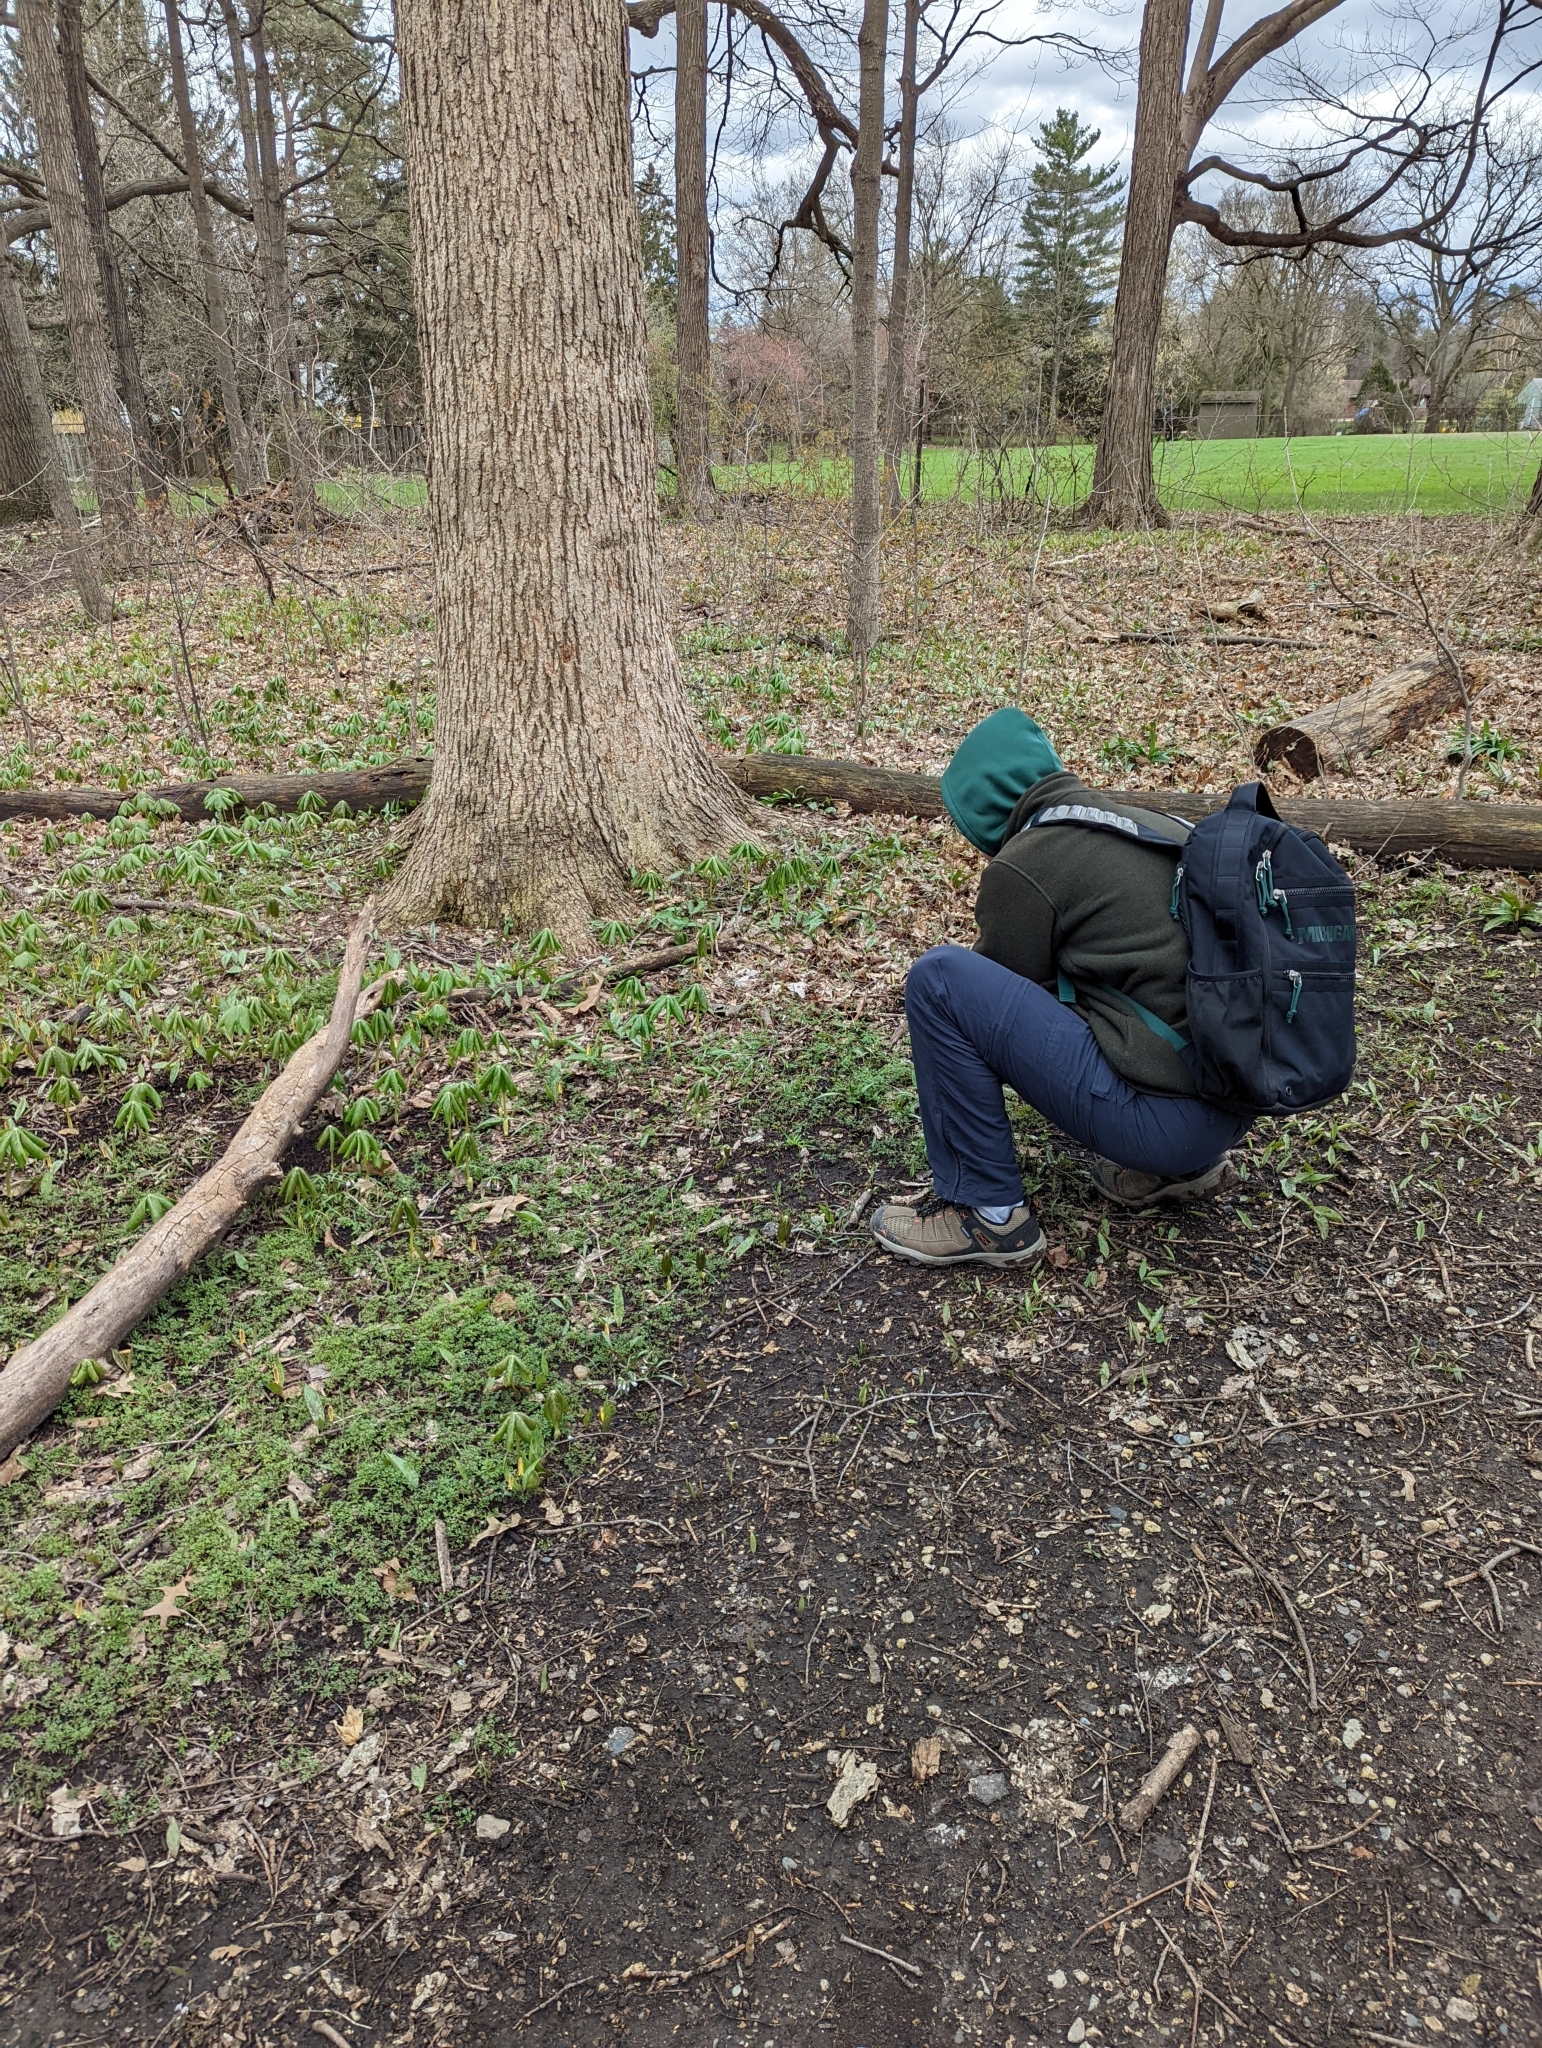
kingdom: Plantae
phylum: Tracheophyta
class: Magnoliopsida
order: Apiales
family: Apiaceae
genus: Erigenia
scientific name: Erigenia bulbosa
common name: Pepper-and-salt
